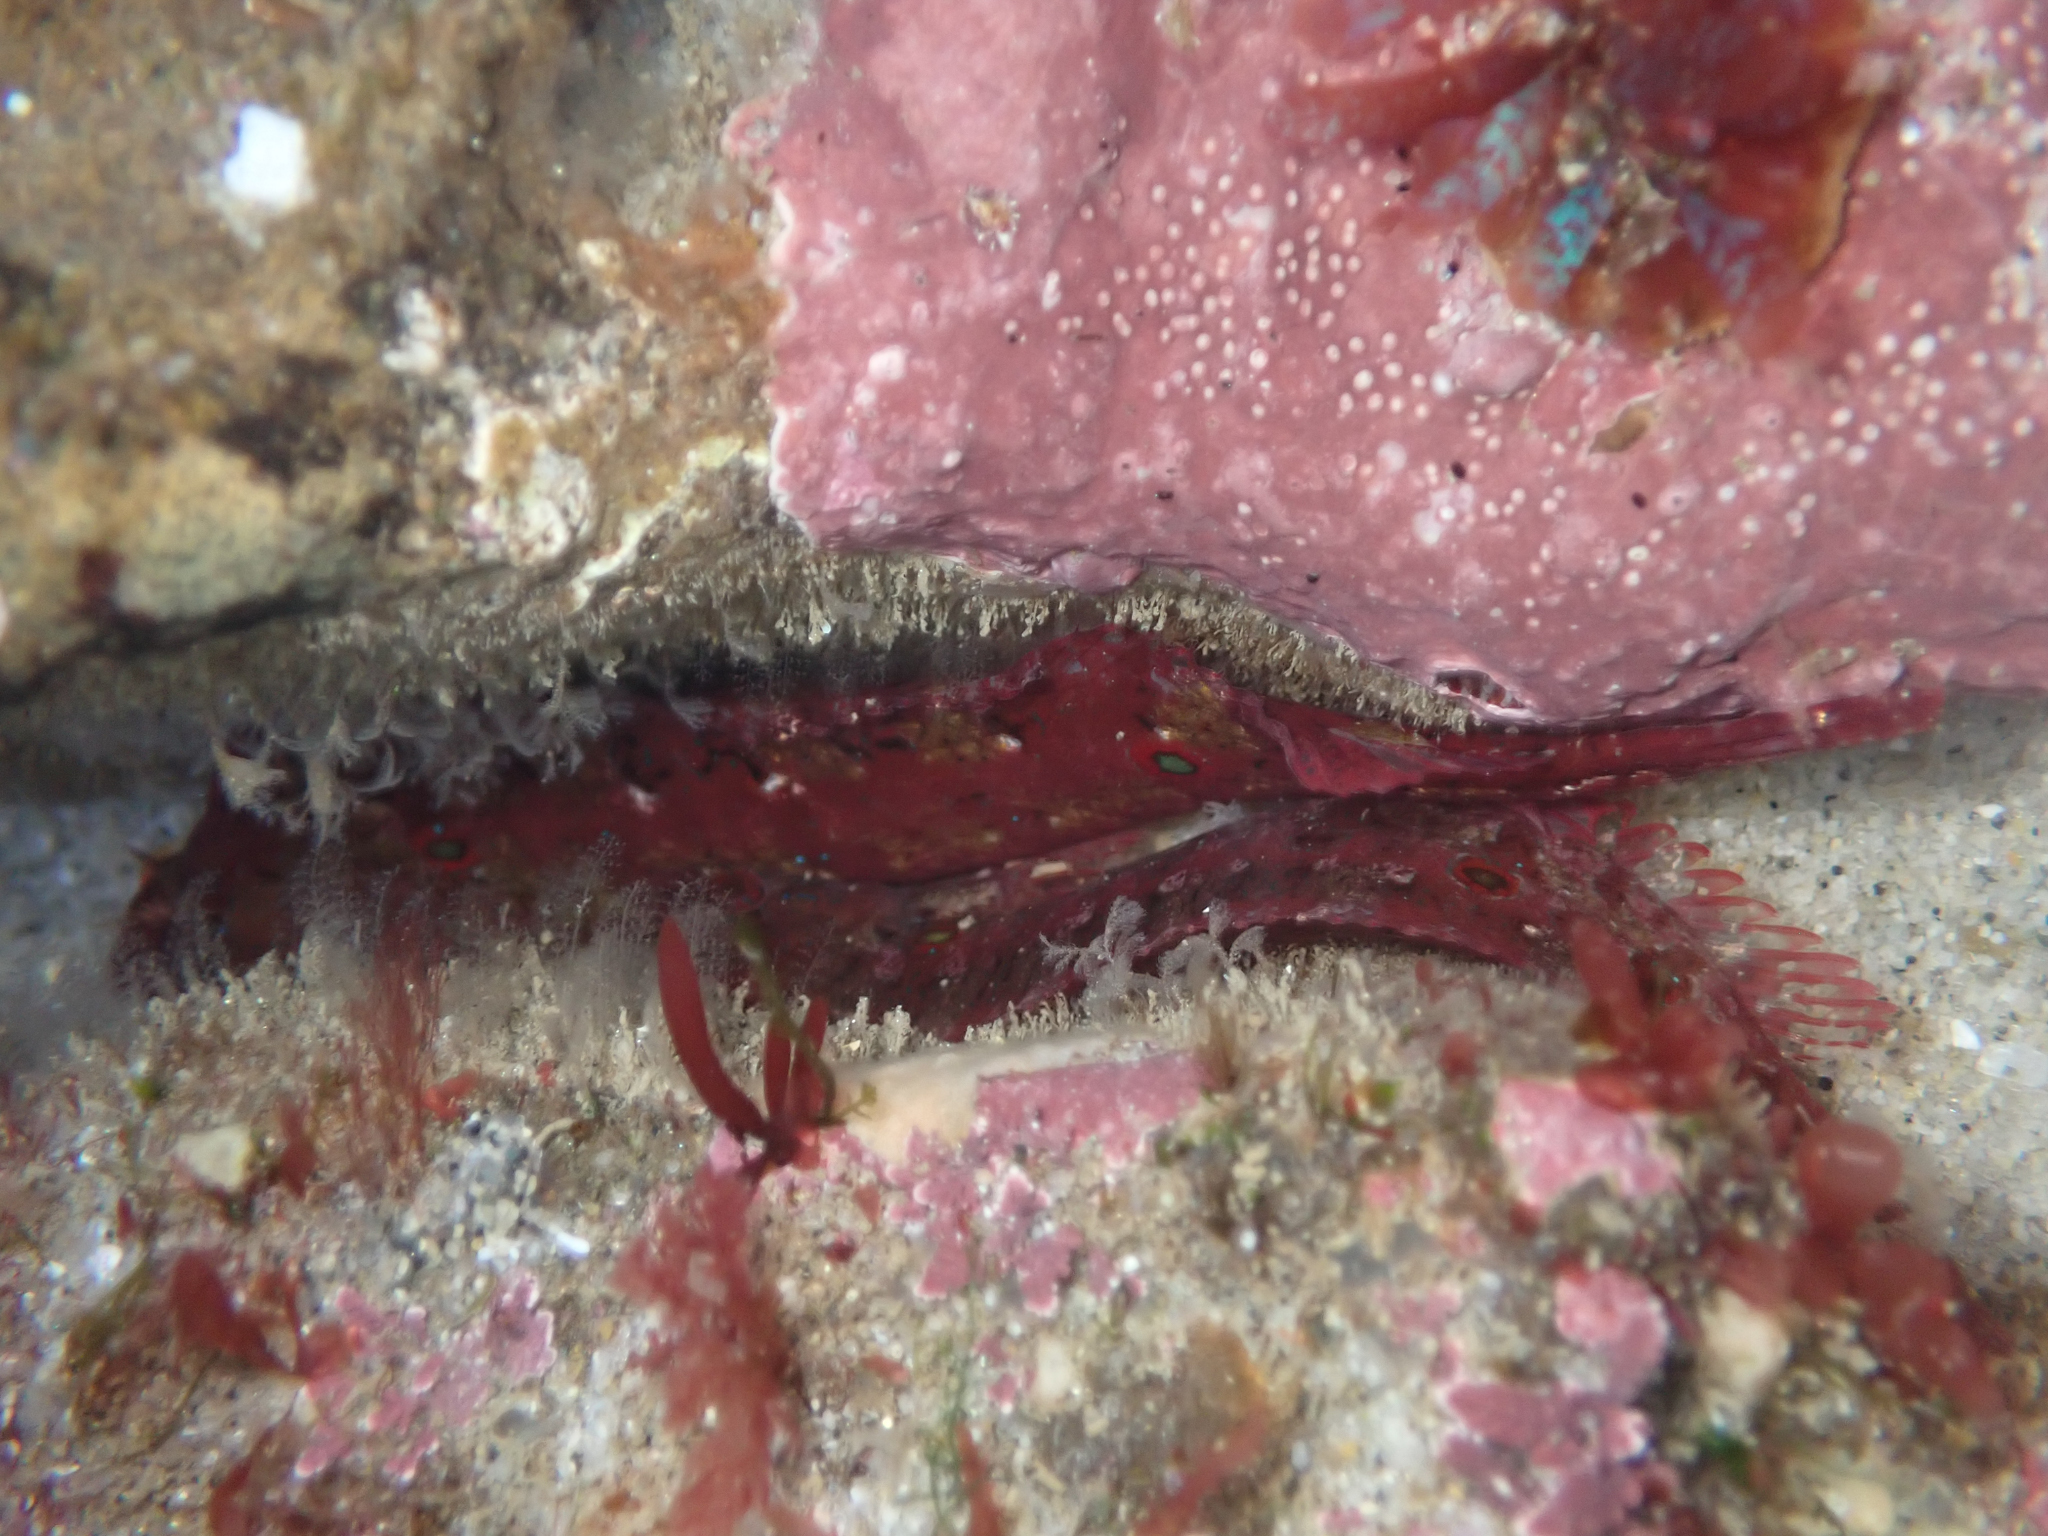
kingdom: Animalia
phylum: Chordata
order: Perciformes
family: Clinidae
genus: Gibbonsia
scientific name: Gibbonsia elegans
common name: Spotted kelpfish
